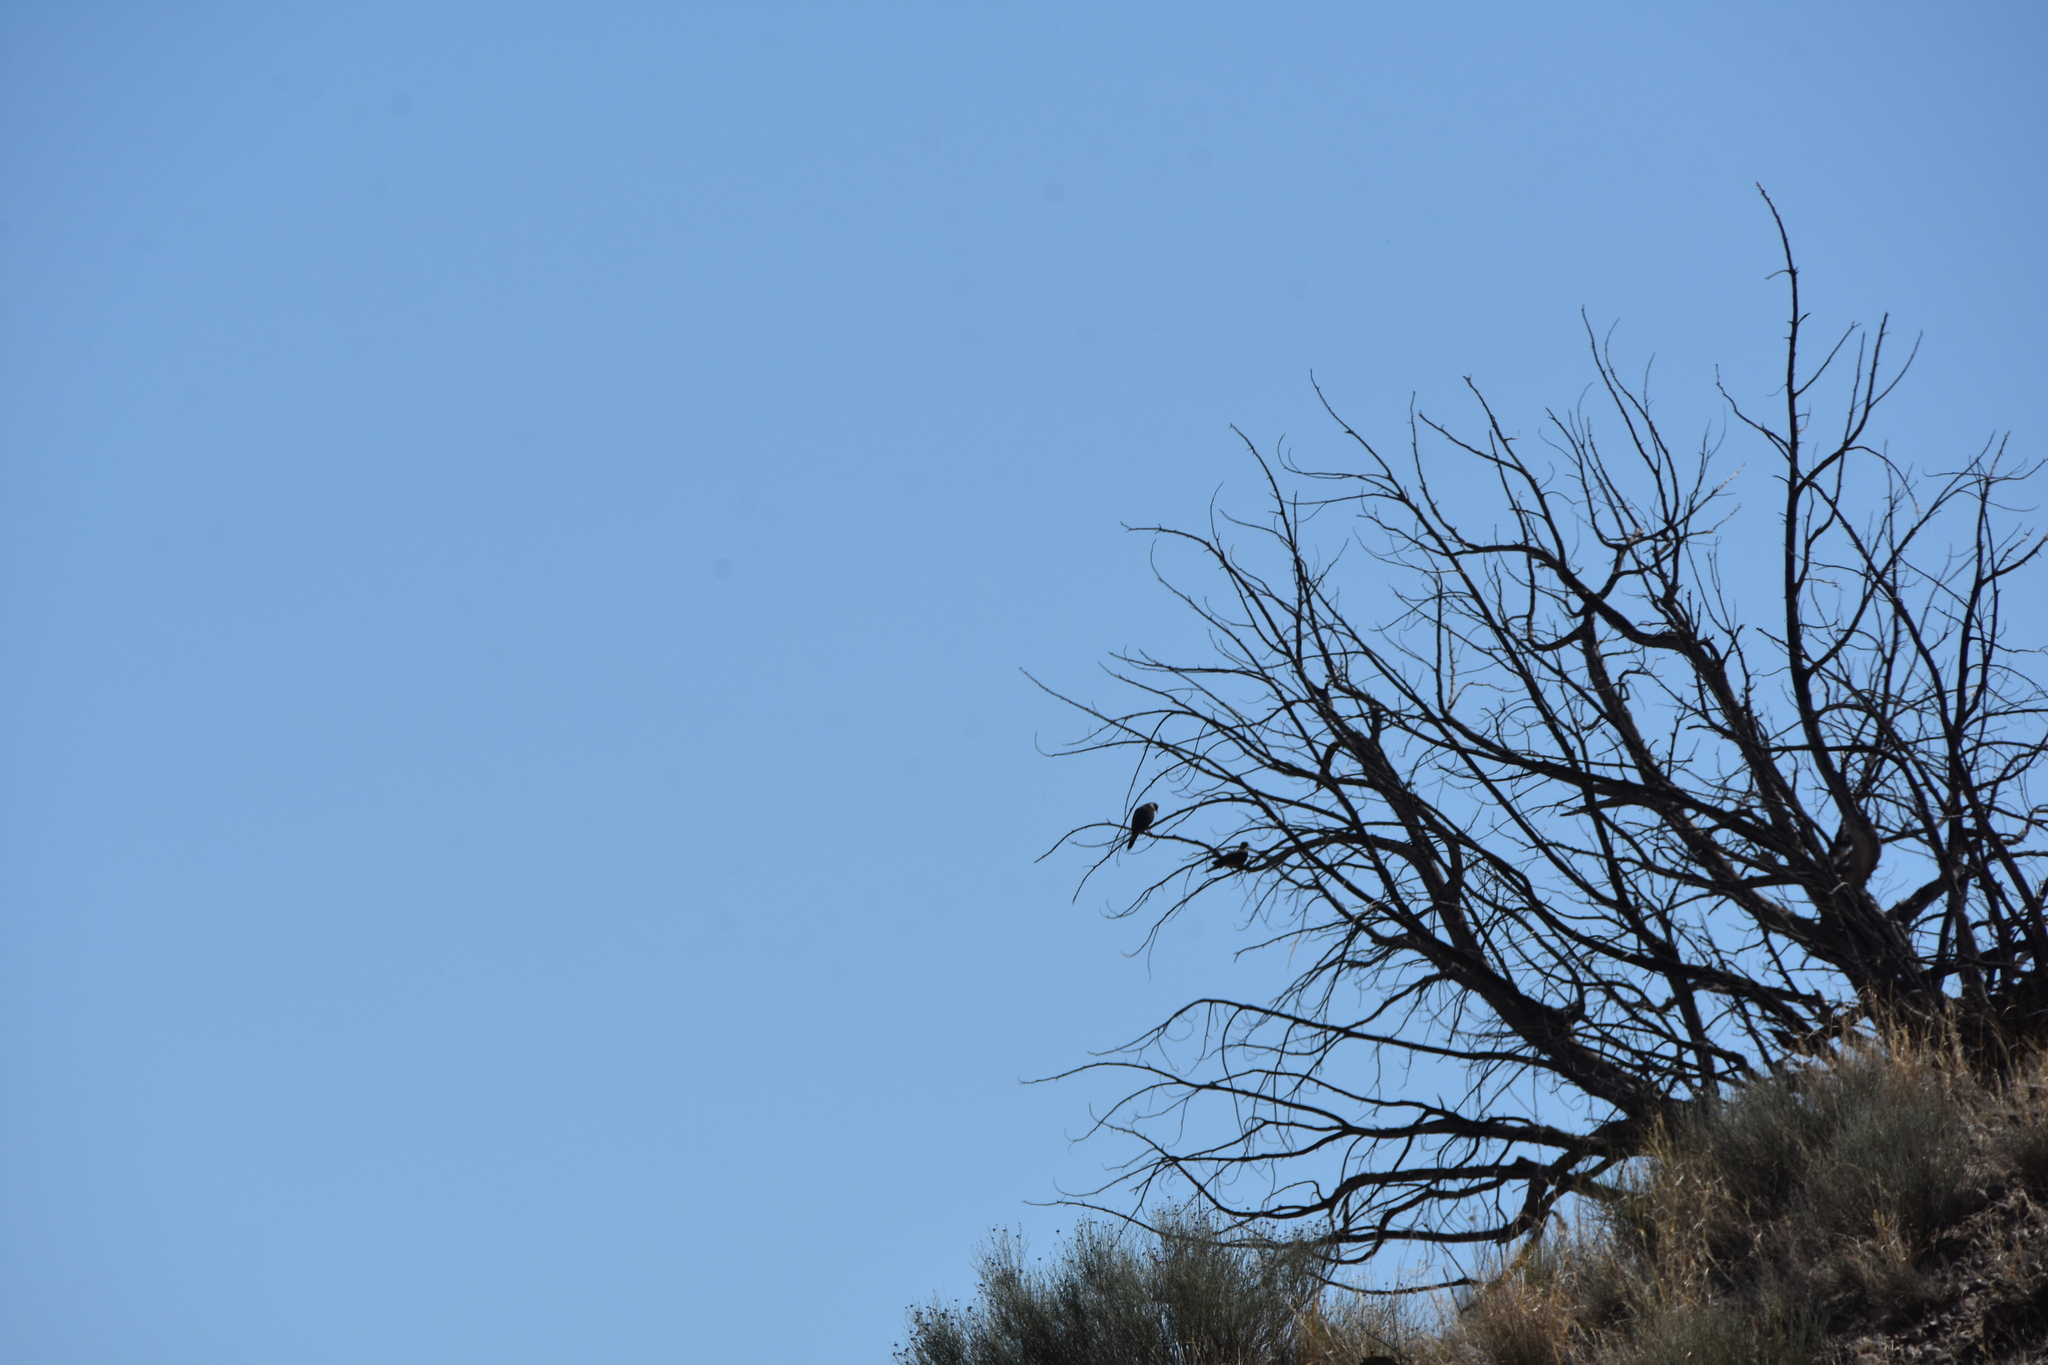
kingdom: Animalia
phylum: Chordata
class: Aves
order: Columbiformes
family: Columbidae
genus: Zenaida
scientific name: Zenaida macroura
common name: Mourning dove
